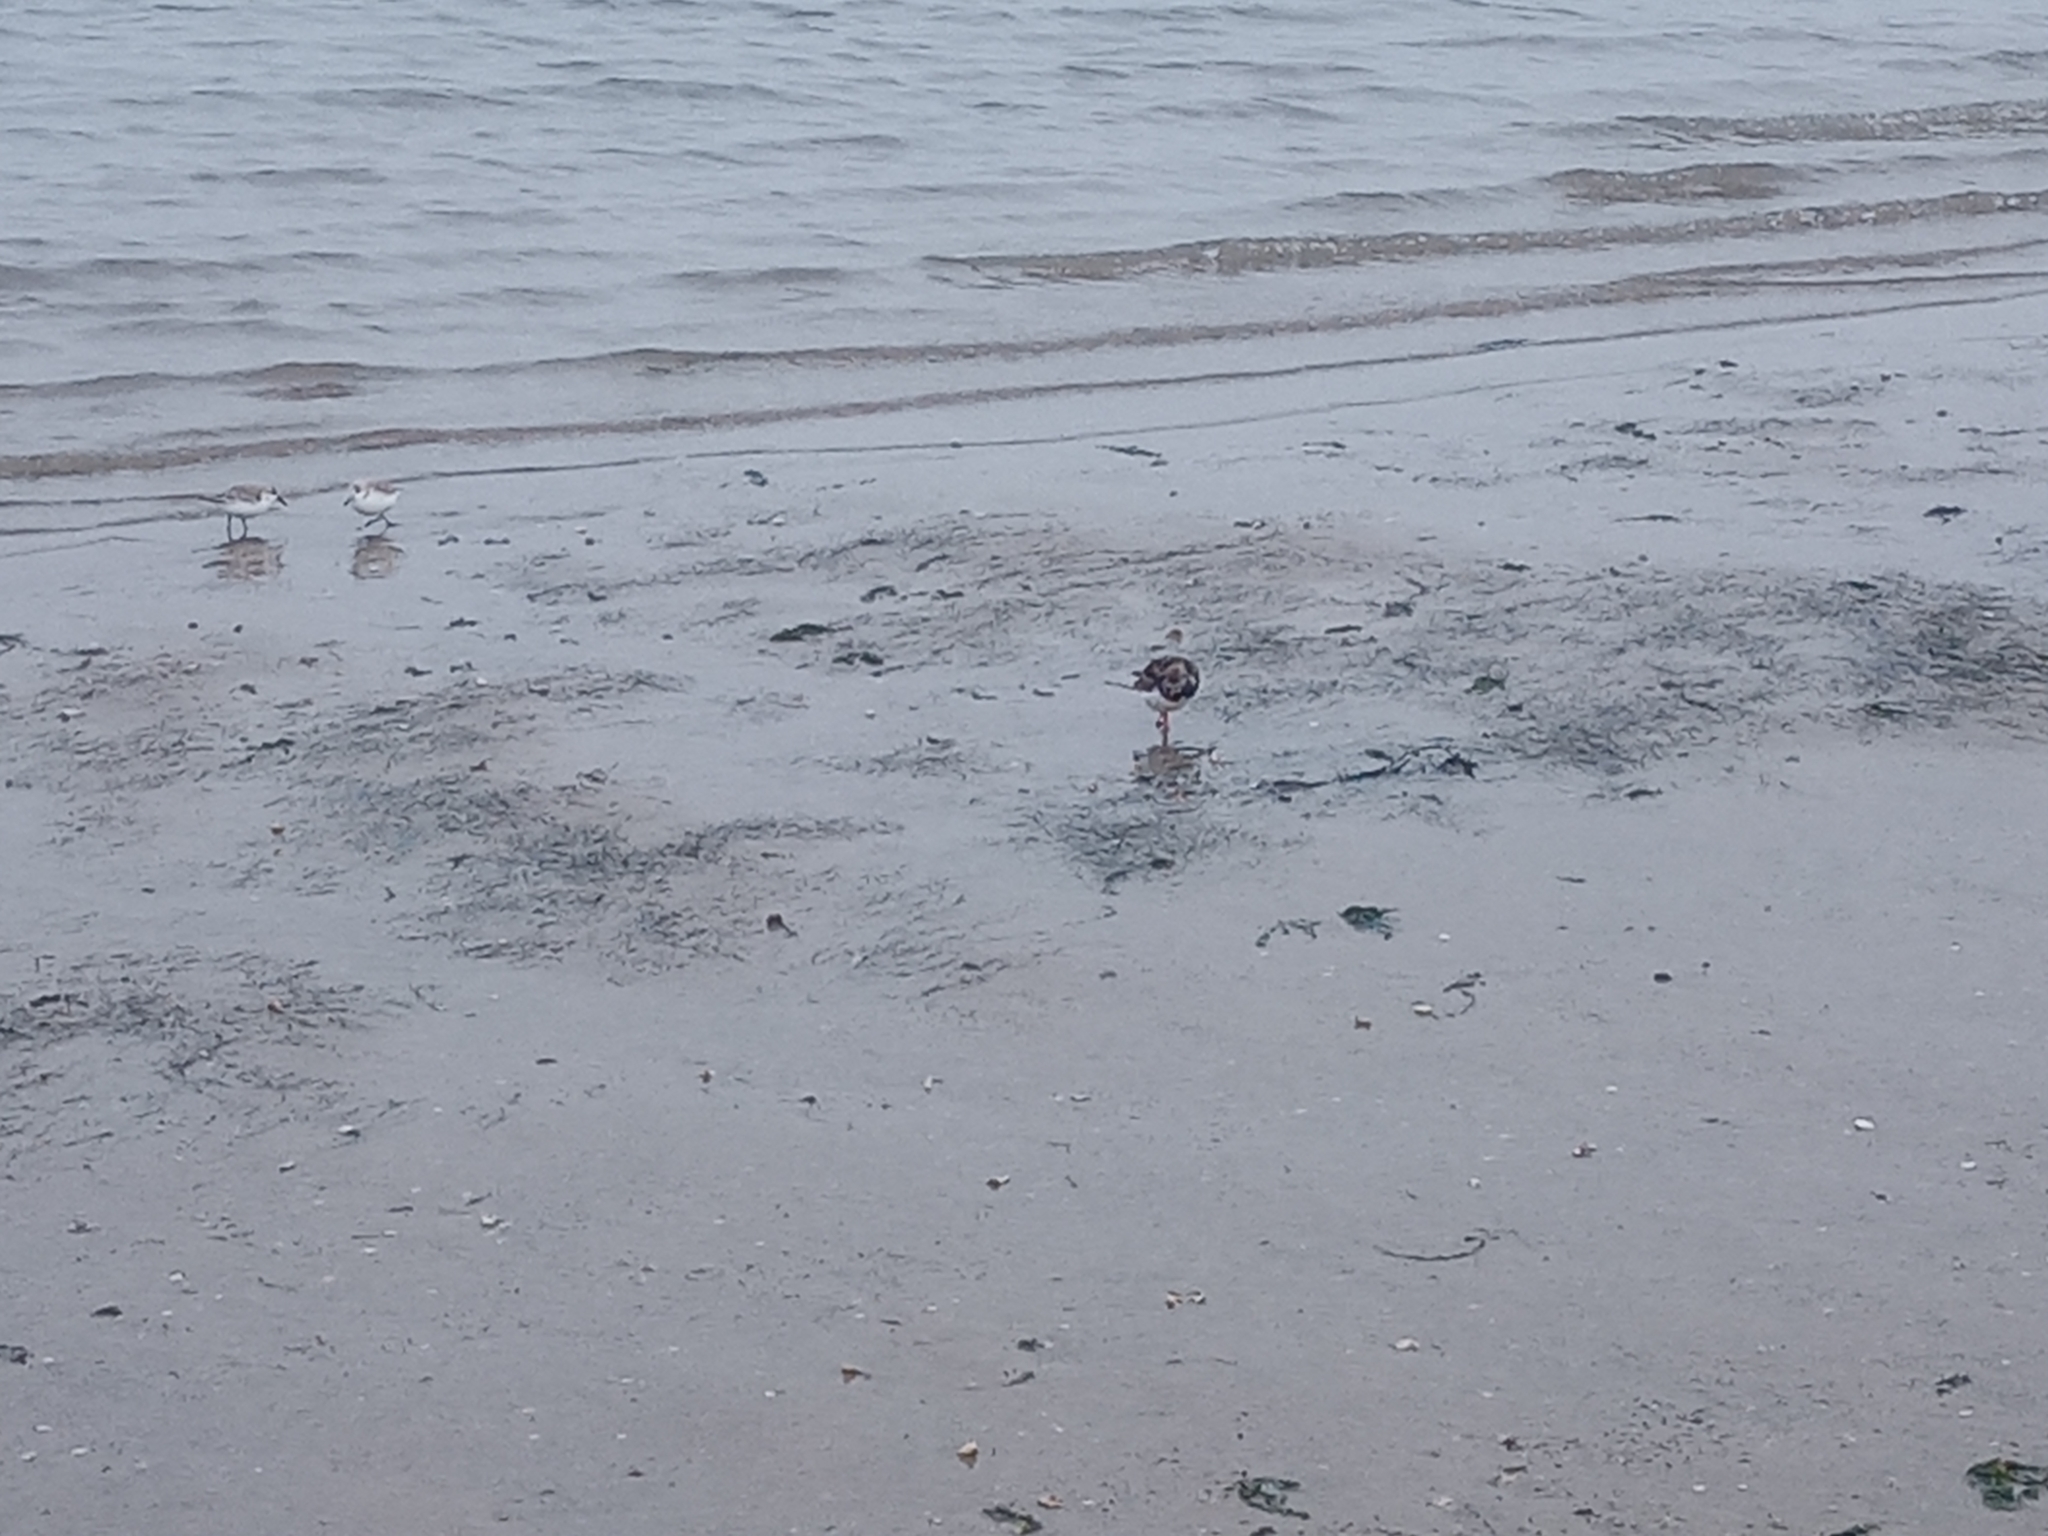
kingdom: Animalia
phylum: Chordata
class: Aves
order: Charadriiformes
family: Scolopacidae
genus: Arenaria
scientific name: Arenaria interpres
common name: Ruddy turnstone
